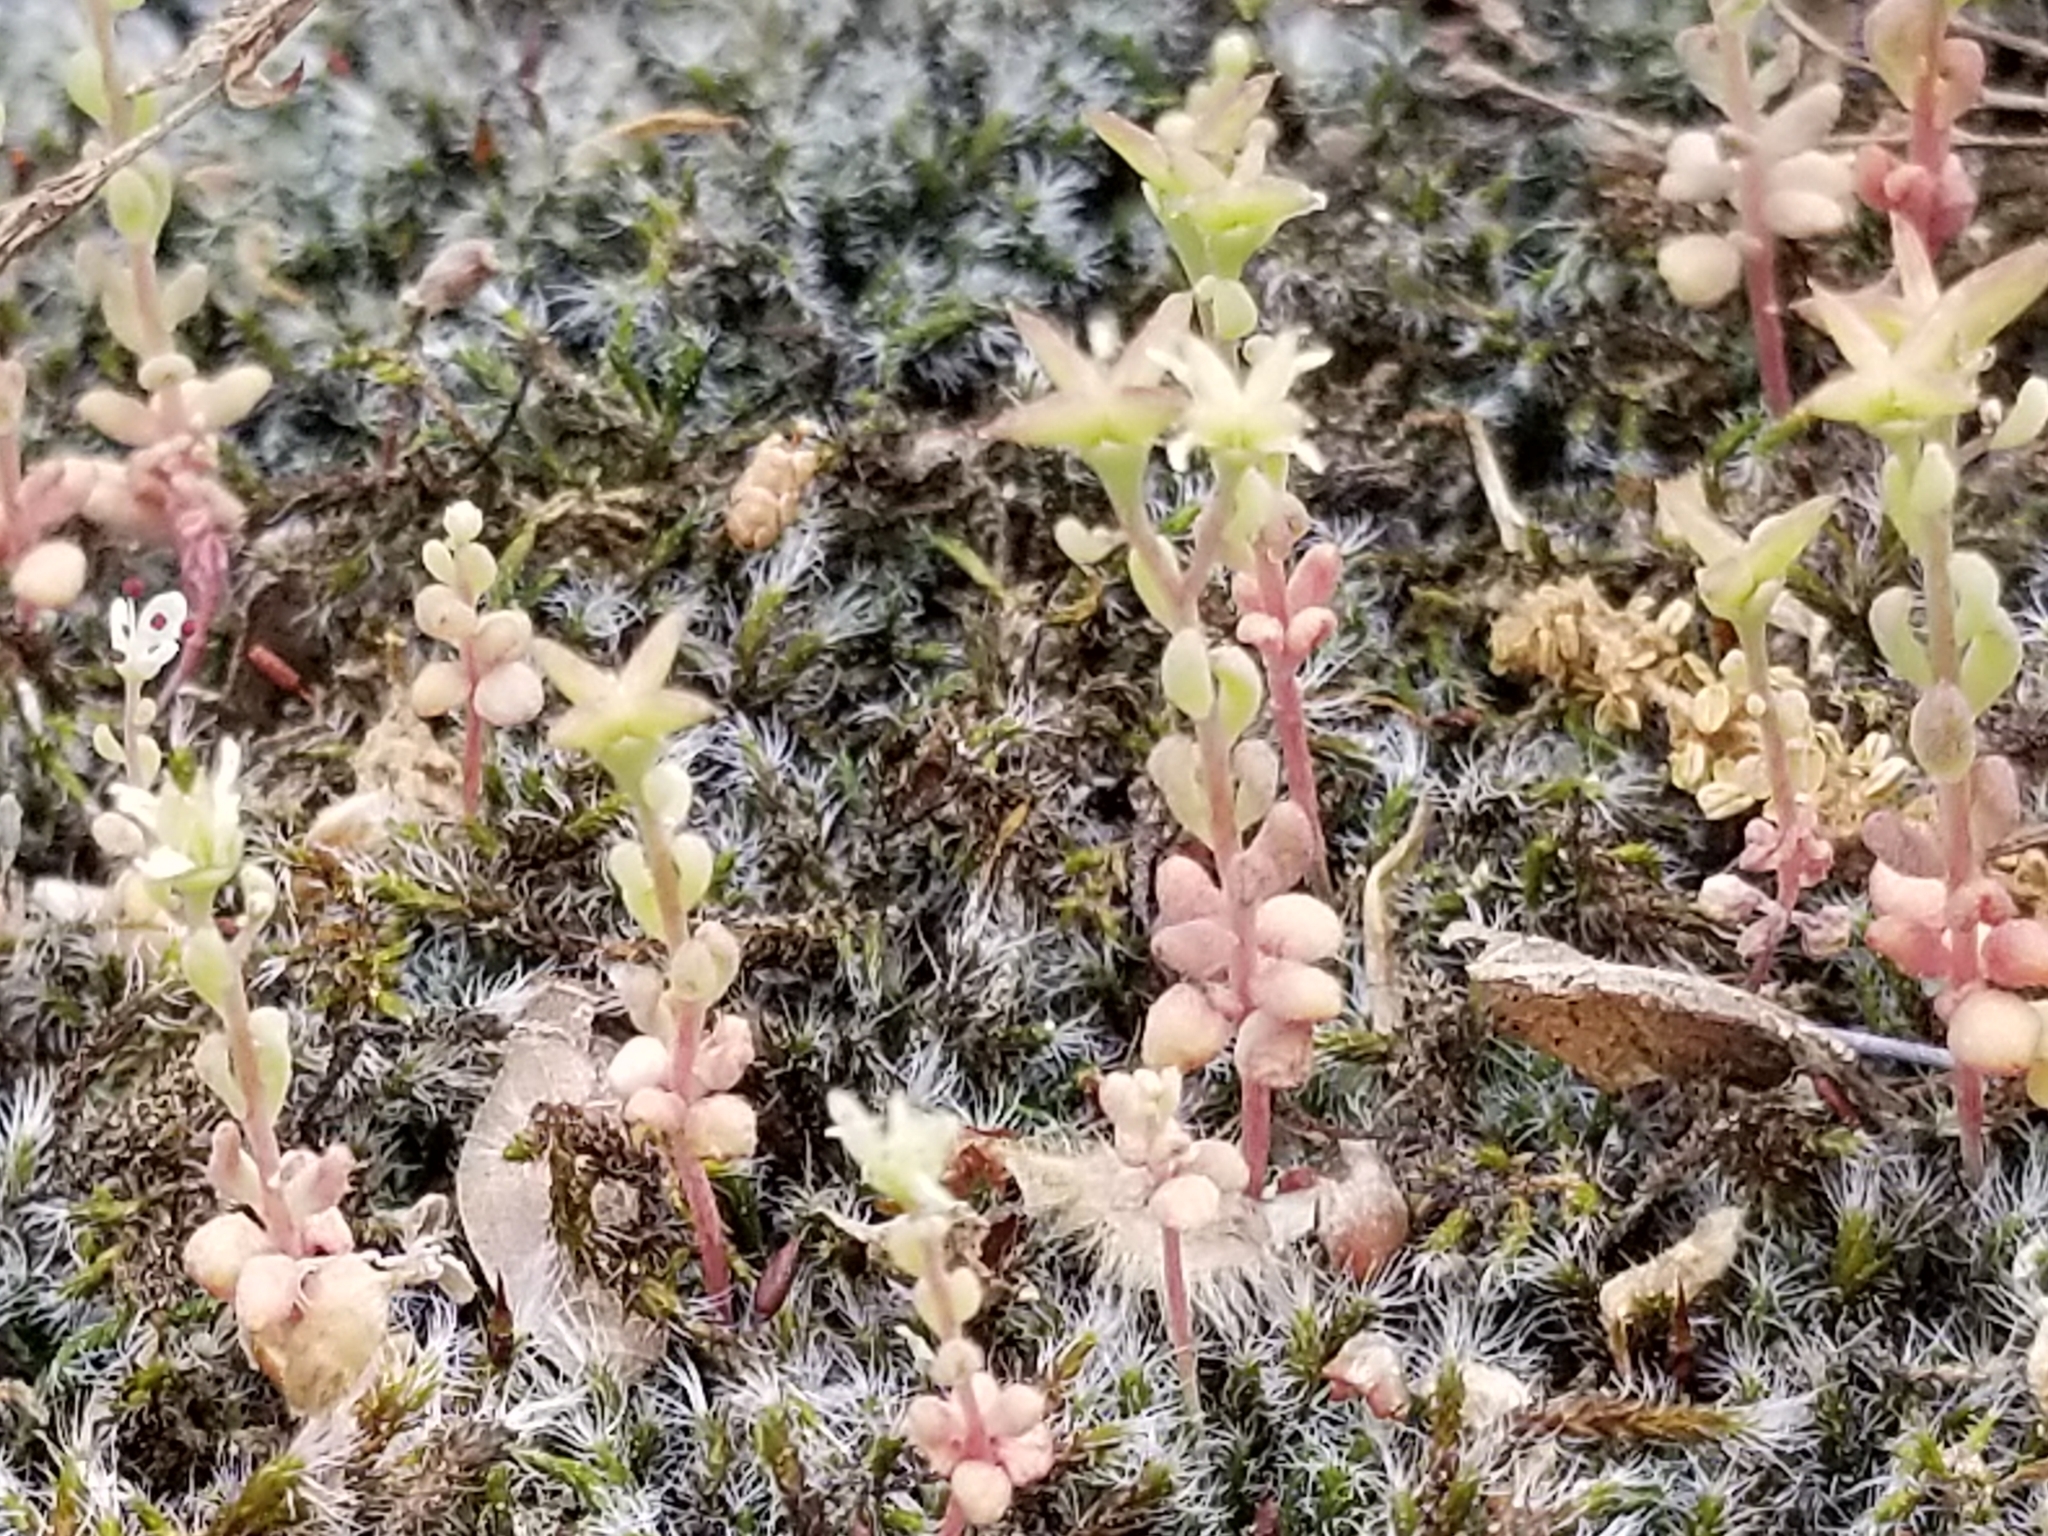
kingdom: Plantae
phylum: Tracheophyta
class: Magnoliopsida
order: Saxifragales
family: Crassulaceae
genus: Sedum
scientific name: Sedum pusillum
